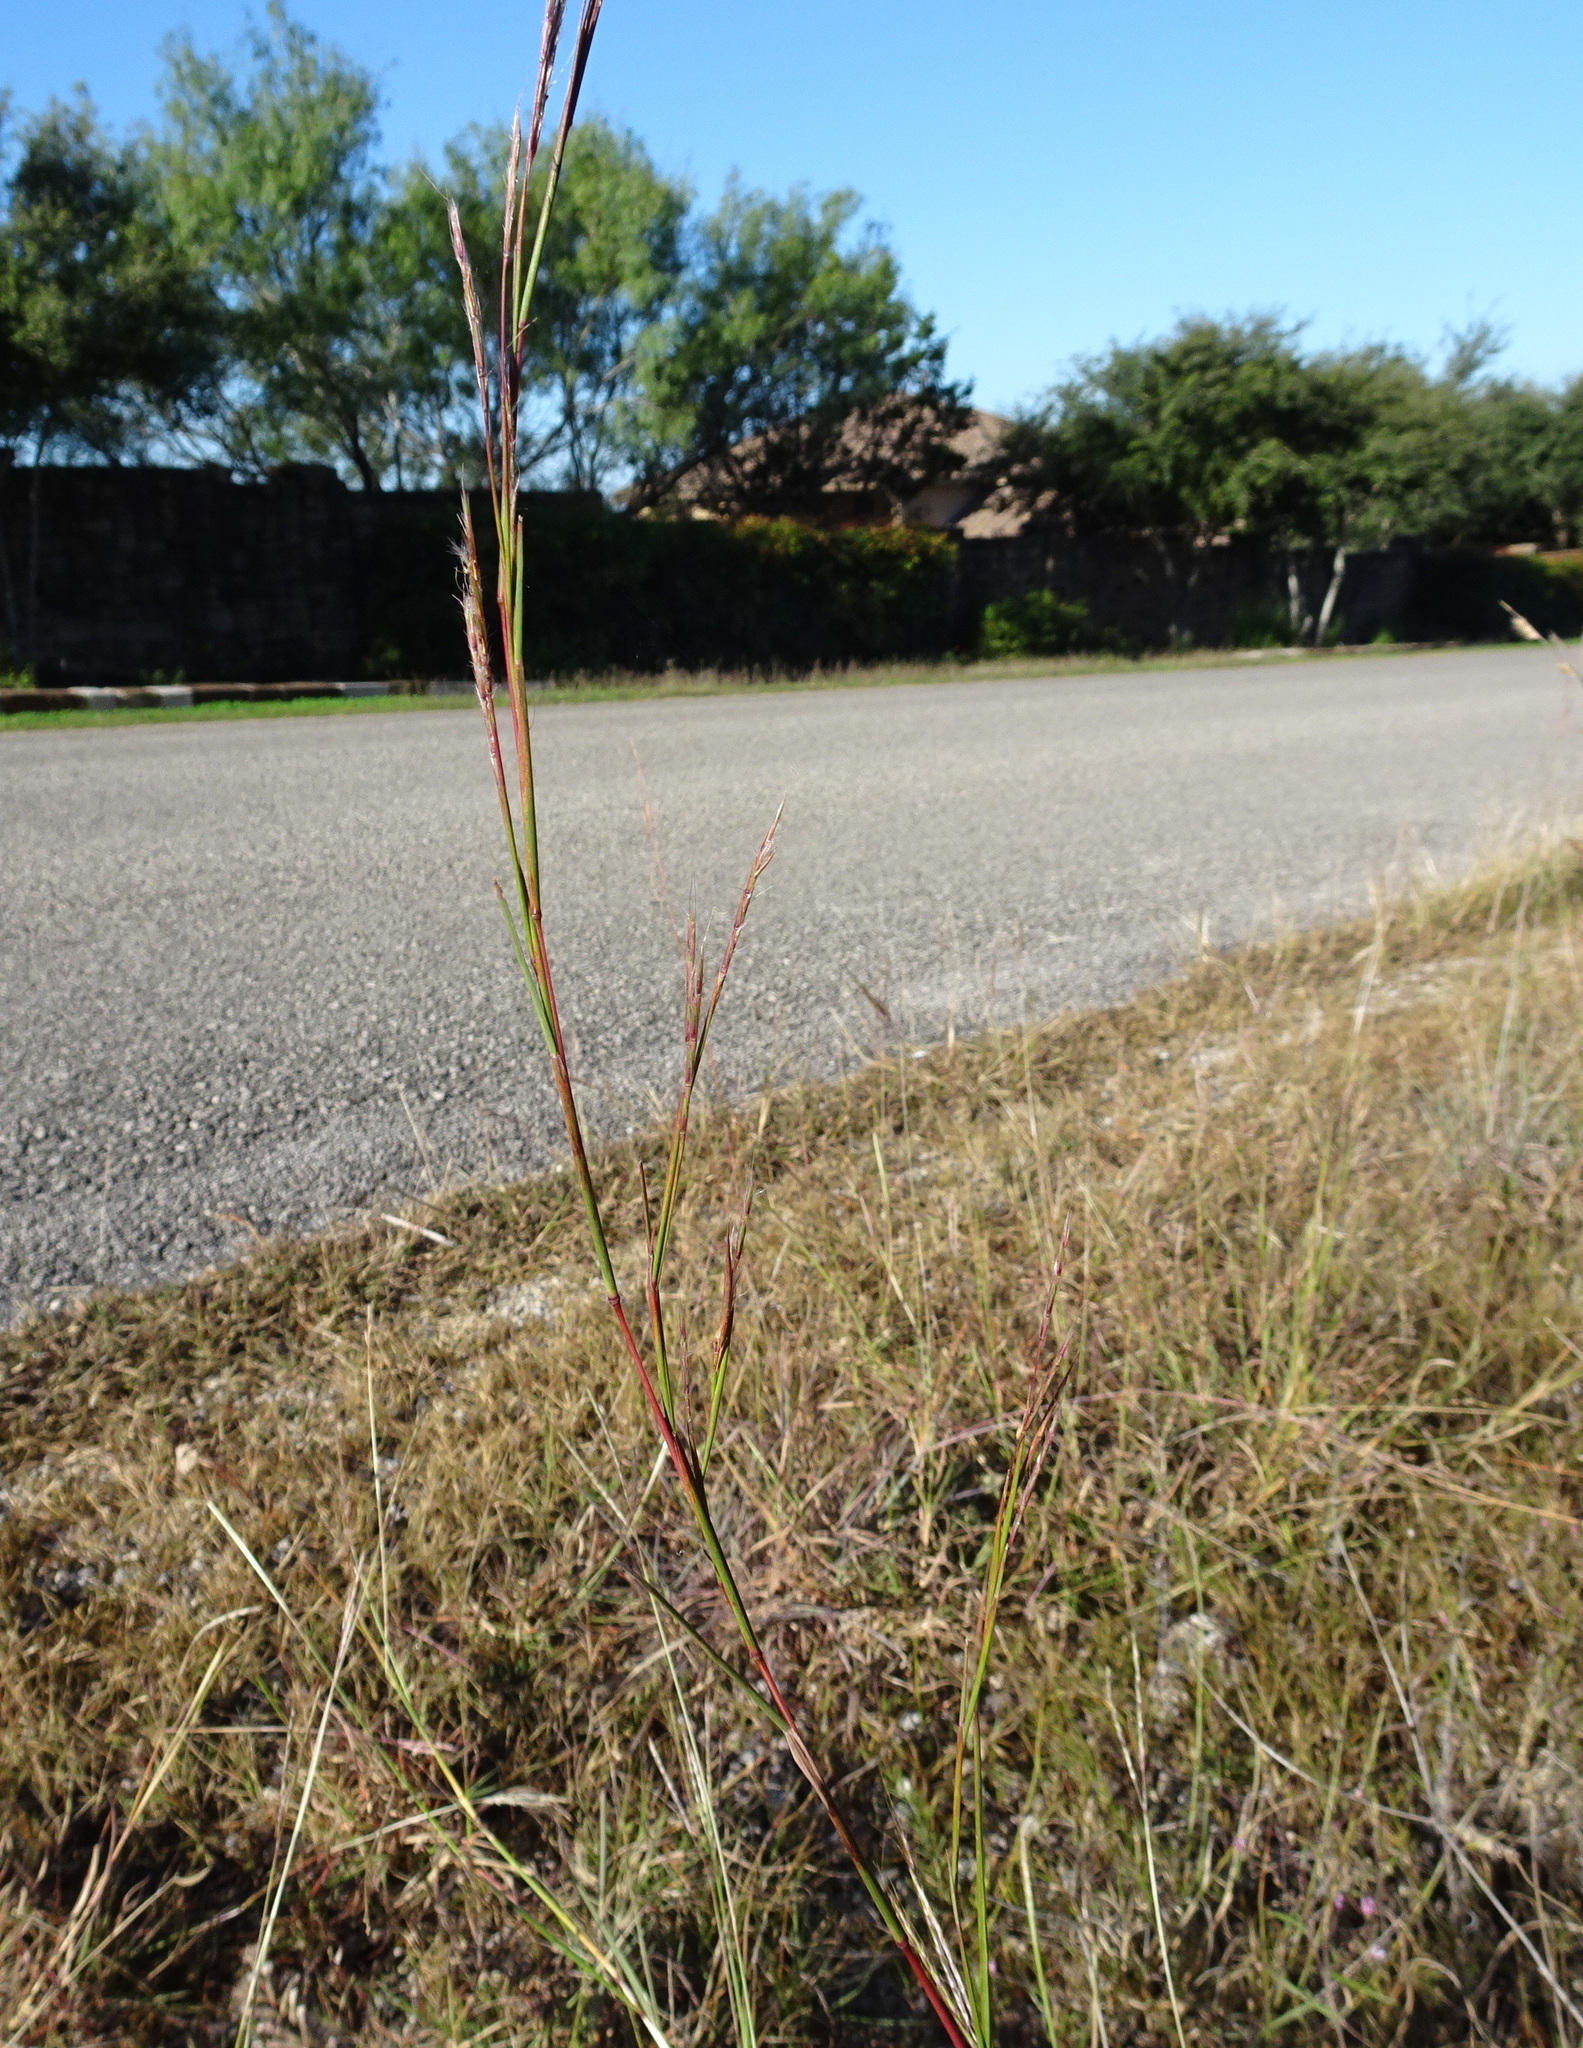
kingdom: Plantae
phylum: Tracheophyta
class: Liliopsida
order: Poales
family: Poaceae
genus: Schizachyrium
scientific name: Schizachyrium scoparium
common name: Little bluestem
